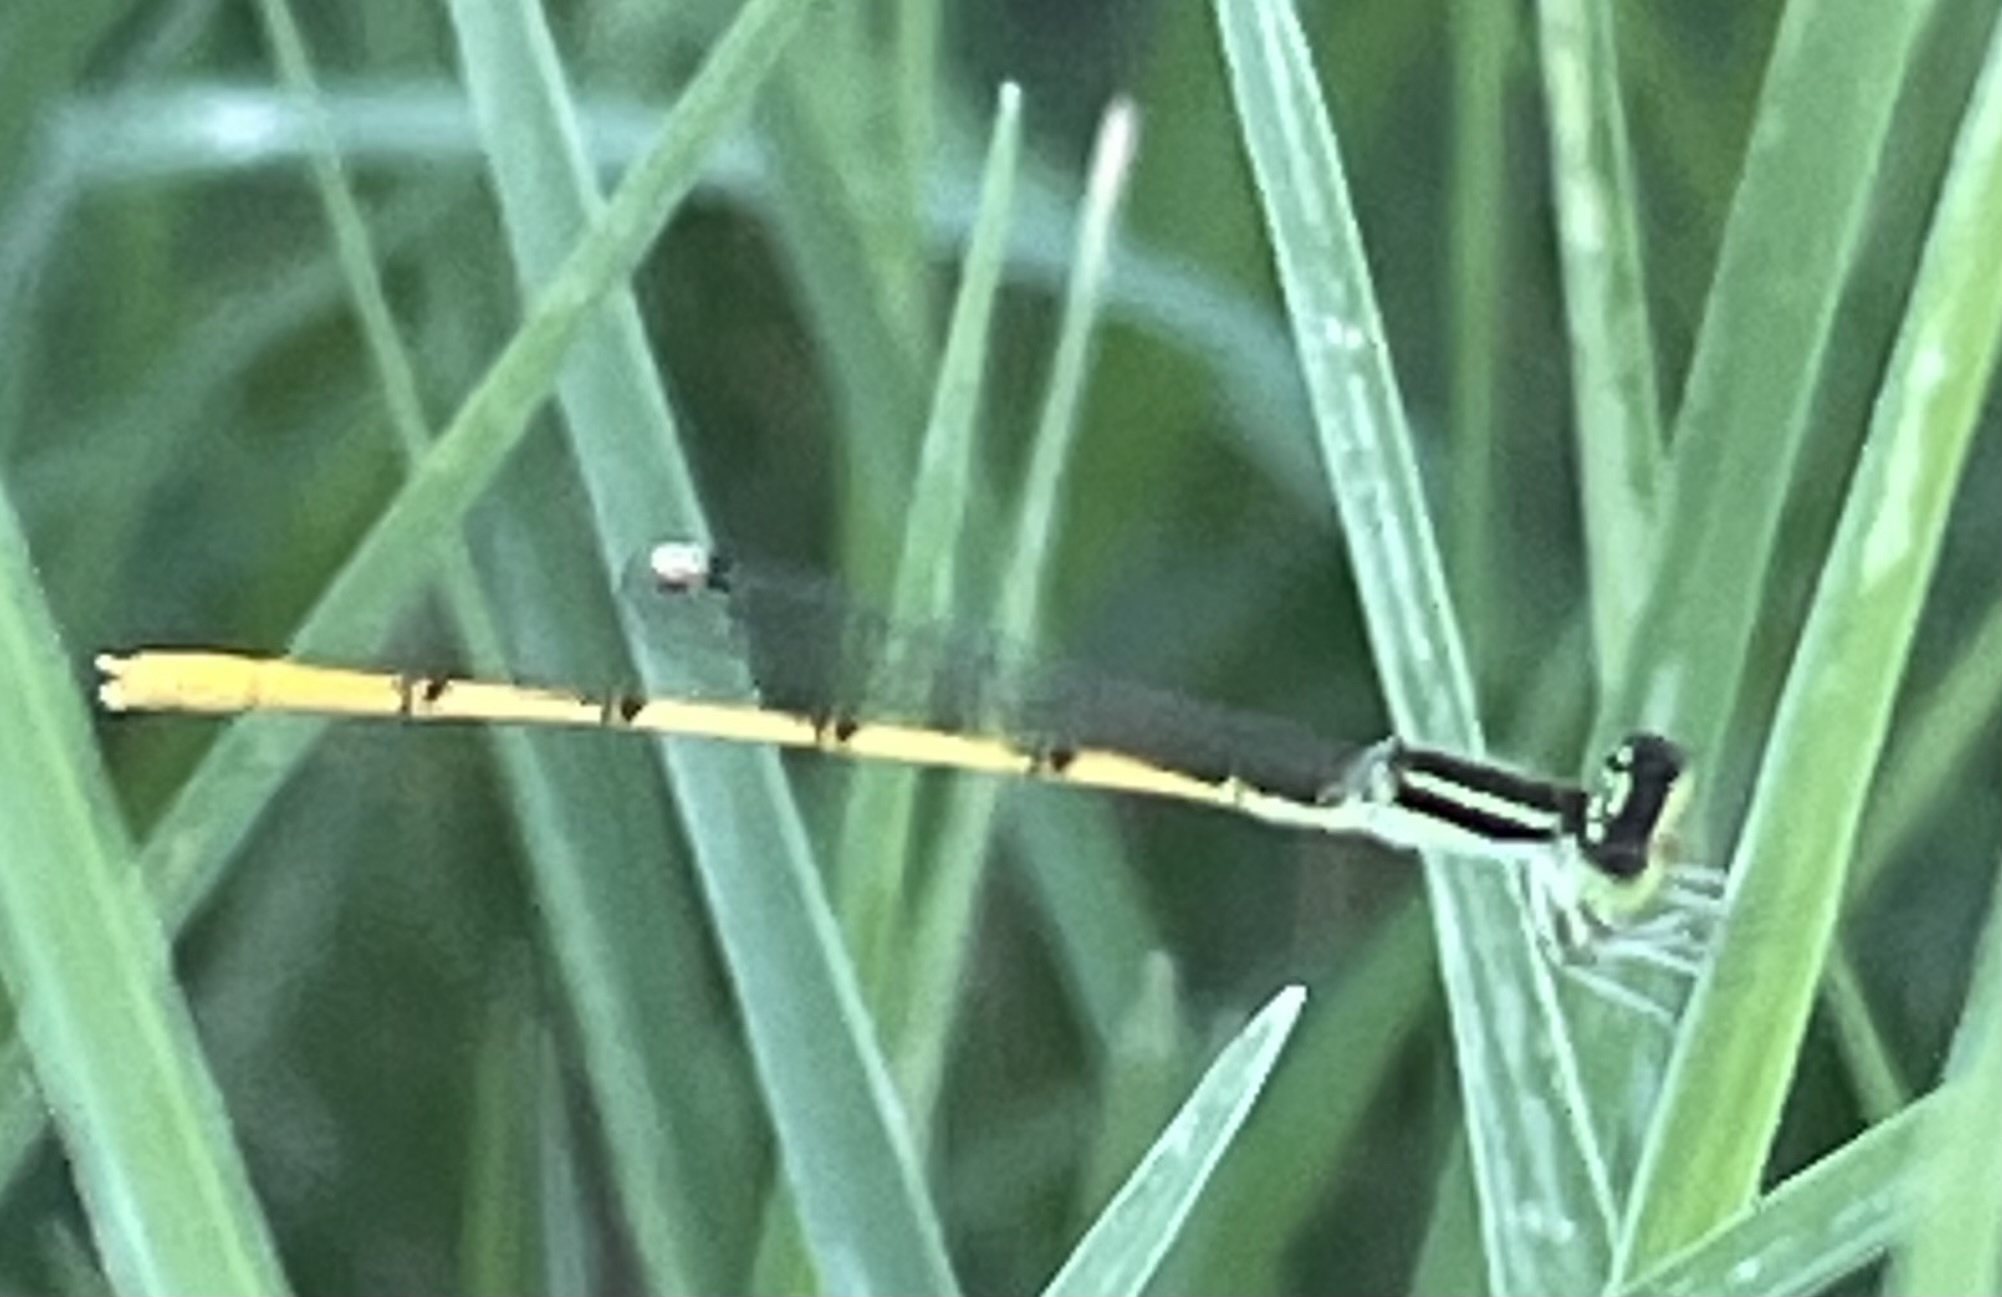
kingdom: Animalia
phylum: Arthropoda
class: Insecta
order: Odonata
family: Coenagrionidae
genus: Ischnura
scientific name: Ischnura hastata
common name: Citrine forktail
